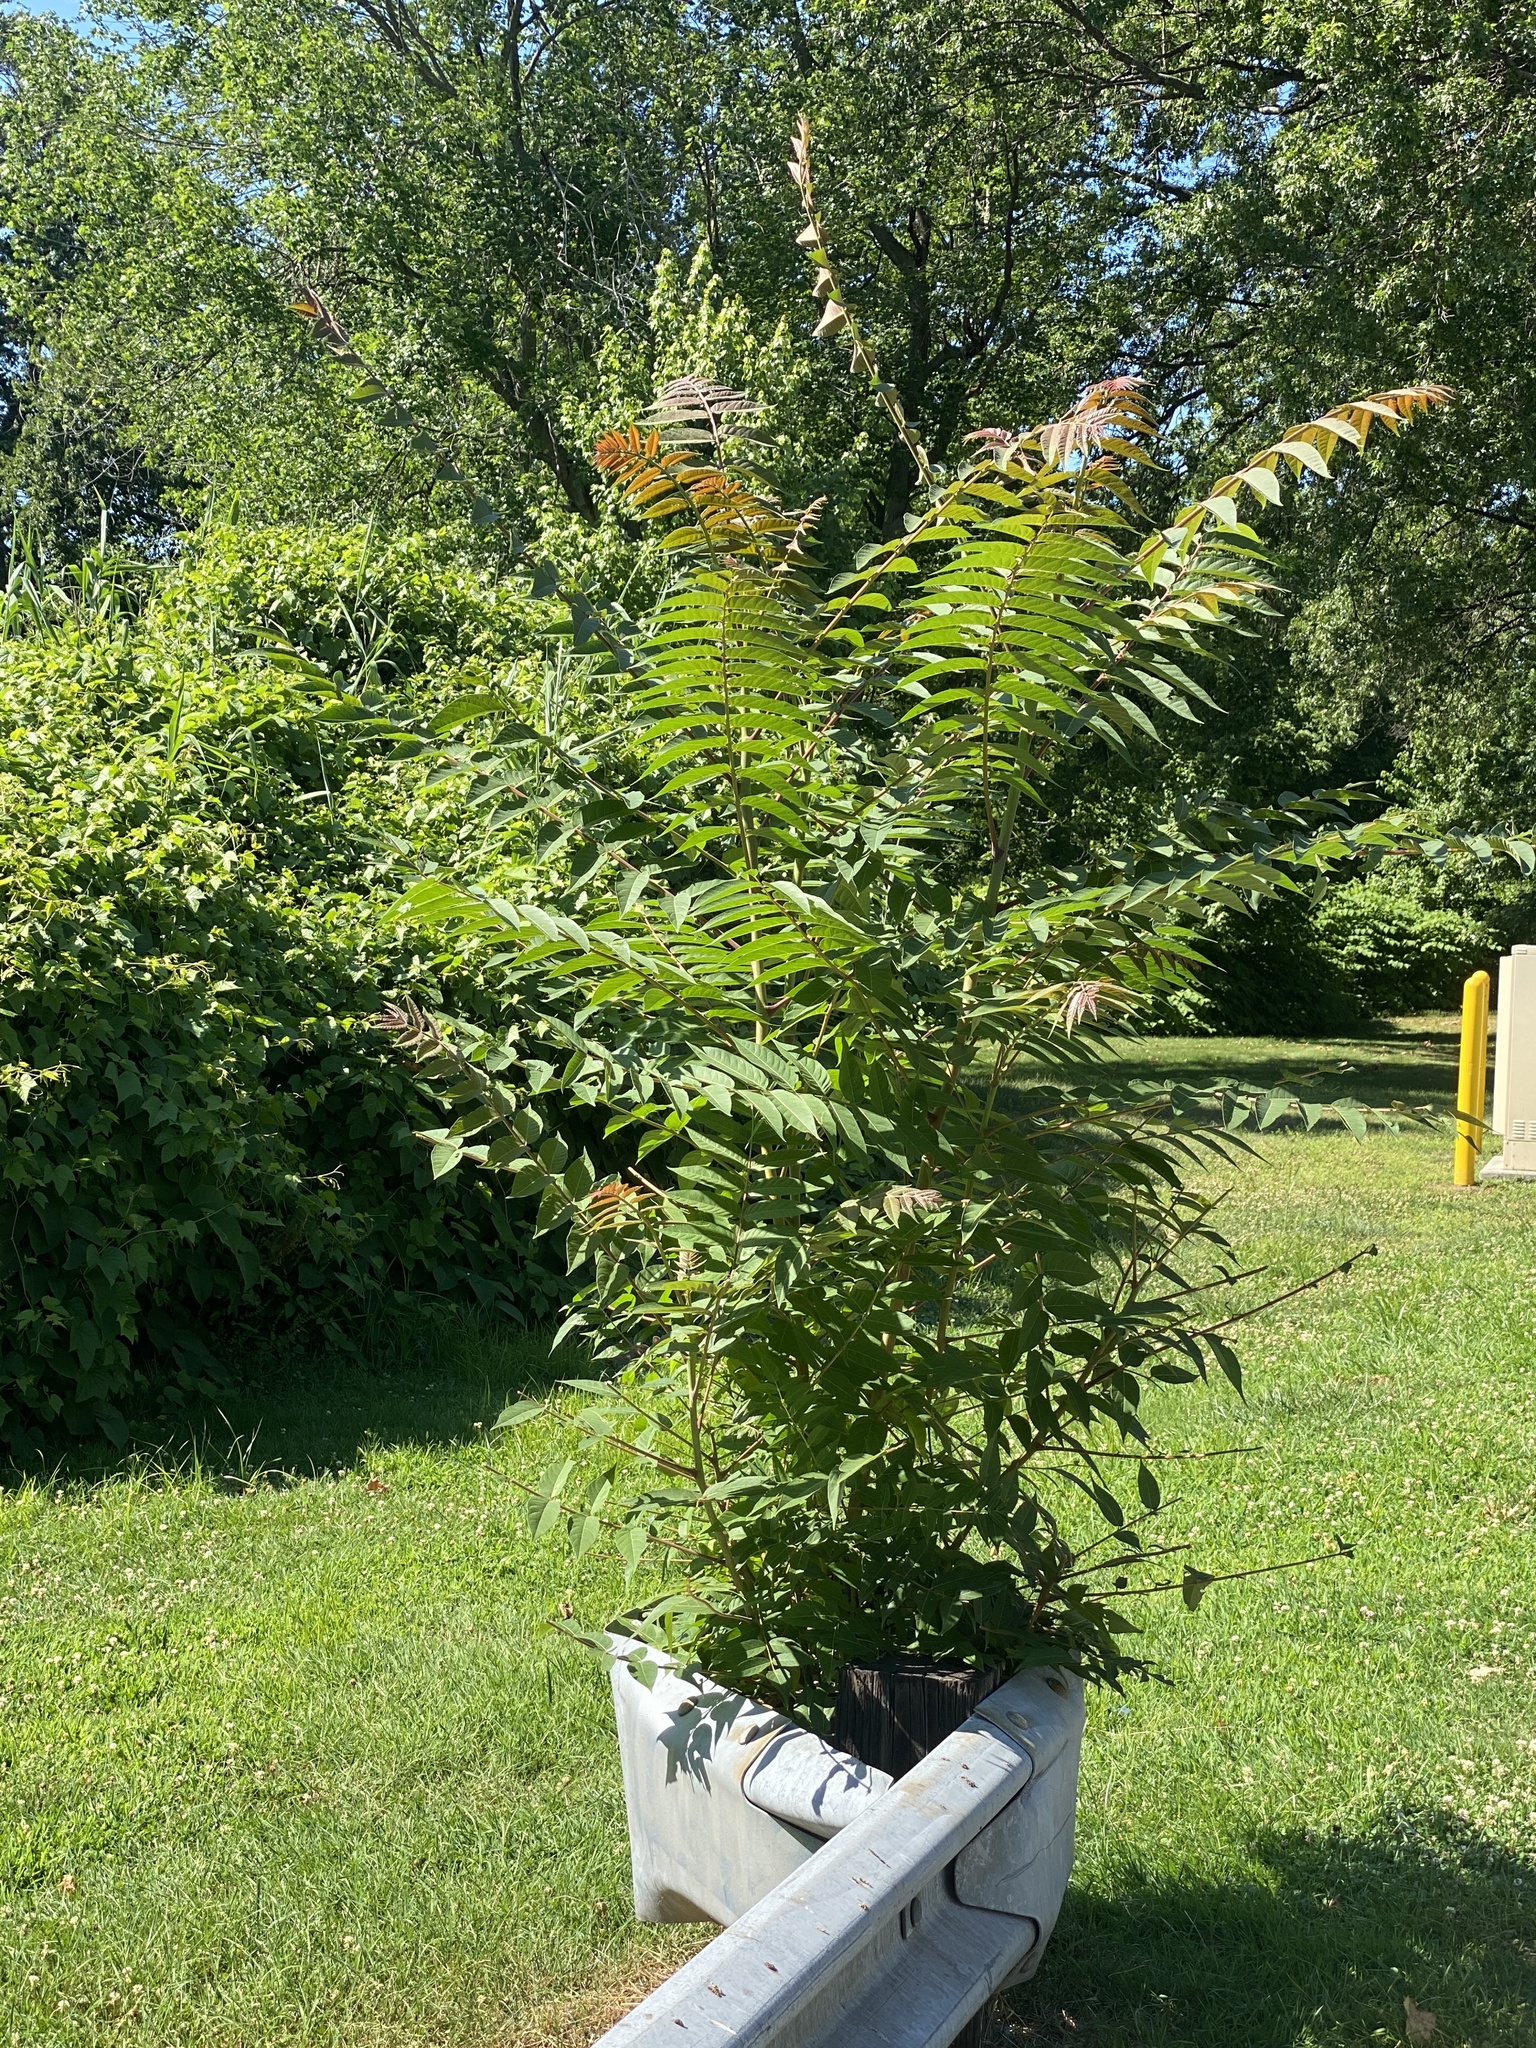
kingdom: Plantae
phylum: Tracheophyta
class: Magnoliopsida
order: Sapindales
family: Simaroubaceae
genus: Ailanthus
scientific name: Ailanthus altissima
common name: Tree-of-heaven
